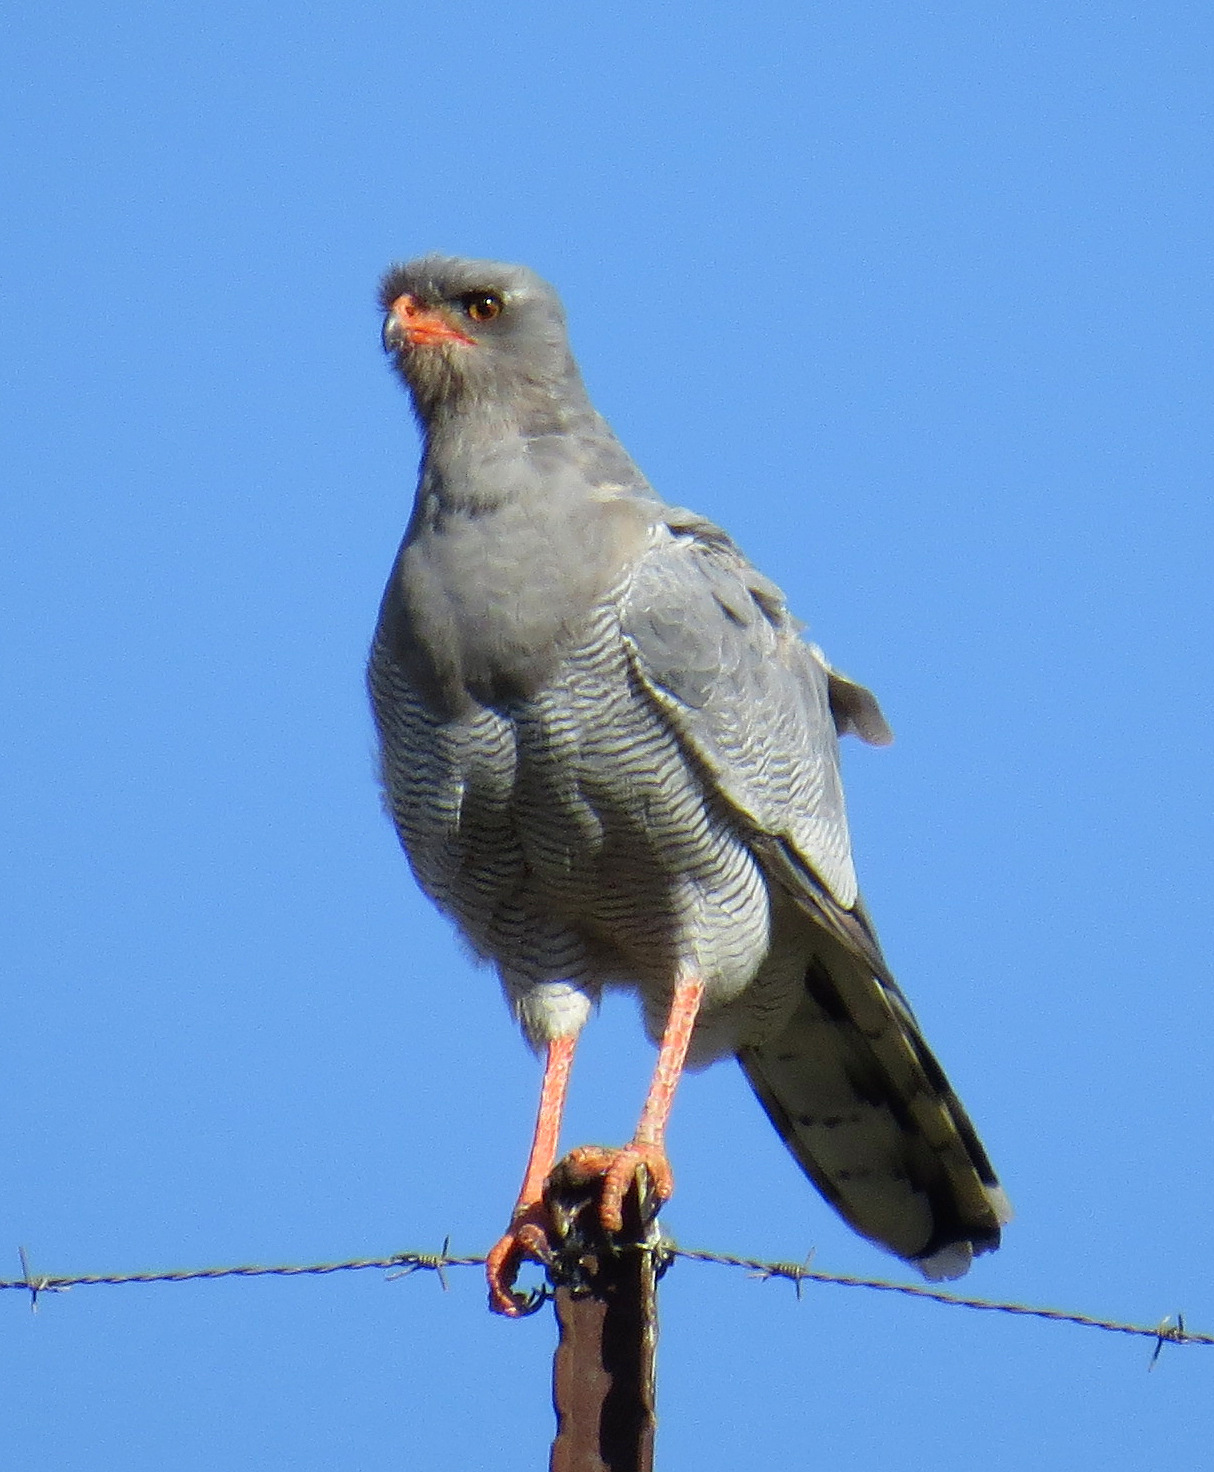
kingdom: Animalia
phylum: Chordata
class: Aves
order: Accipitriformes
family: Accipitridae
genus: Melierax
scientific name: Melierax canorus
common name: Pale chanting-goshawk
